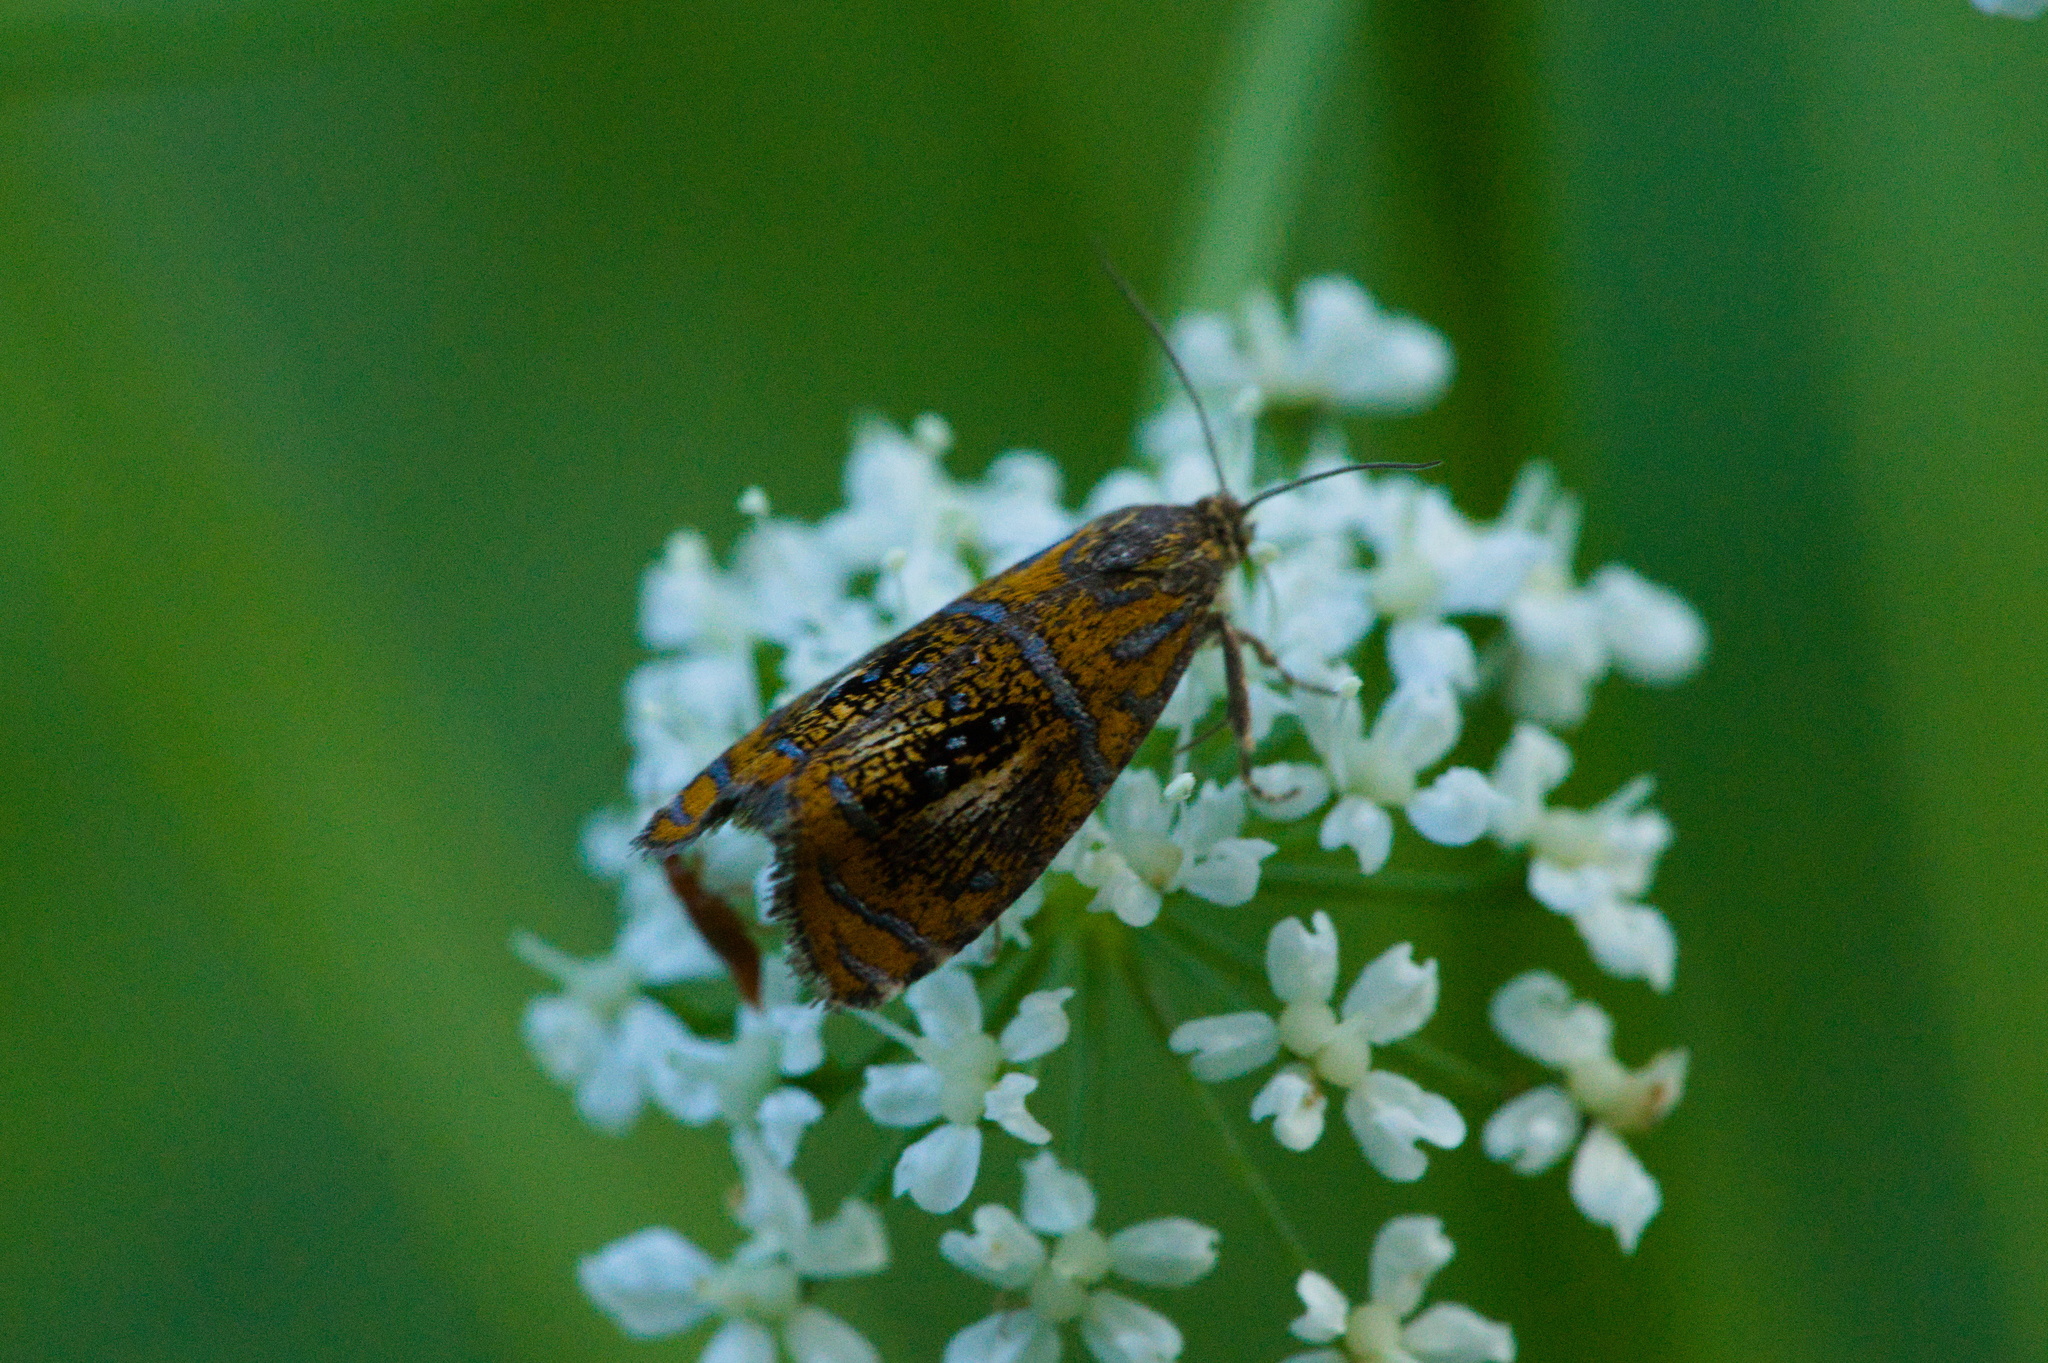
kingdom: Animalia
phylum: Arthropoda
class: Insecta
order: Lepidoptera
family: Tortricidae
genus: Olethreutes
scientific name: Olethreutes arcuella
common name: Arched marble
